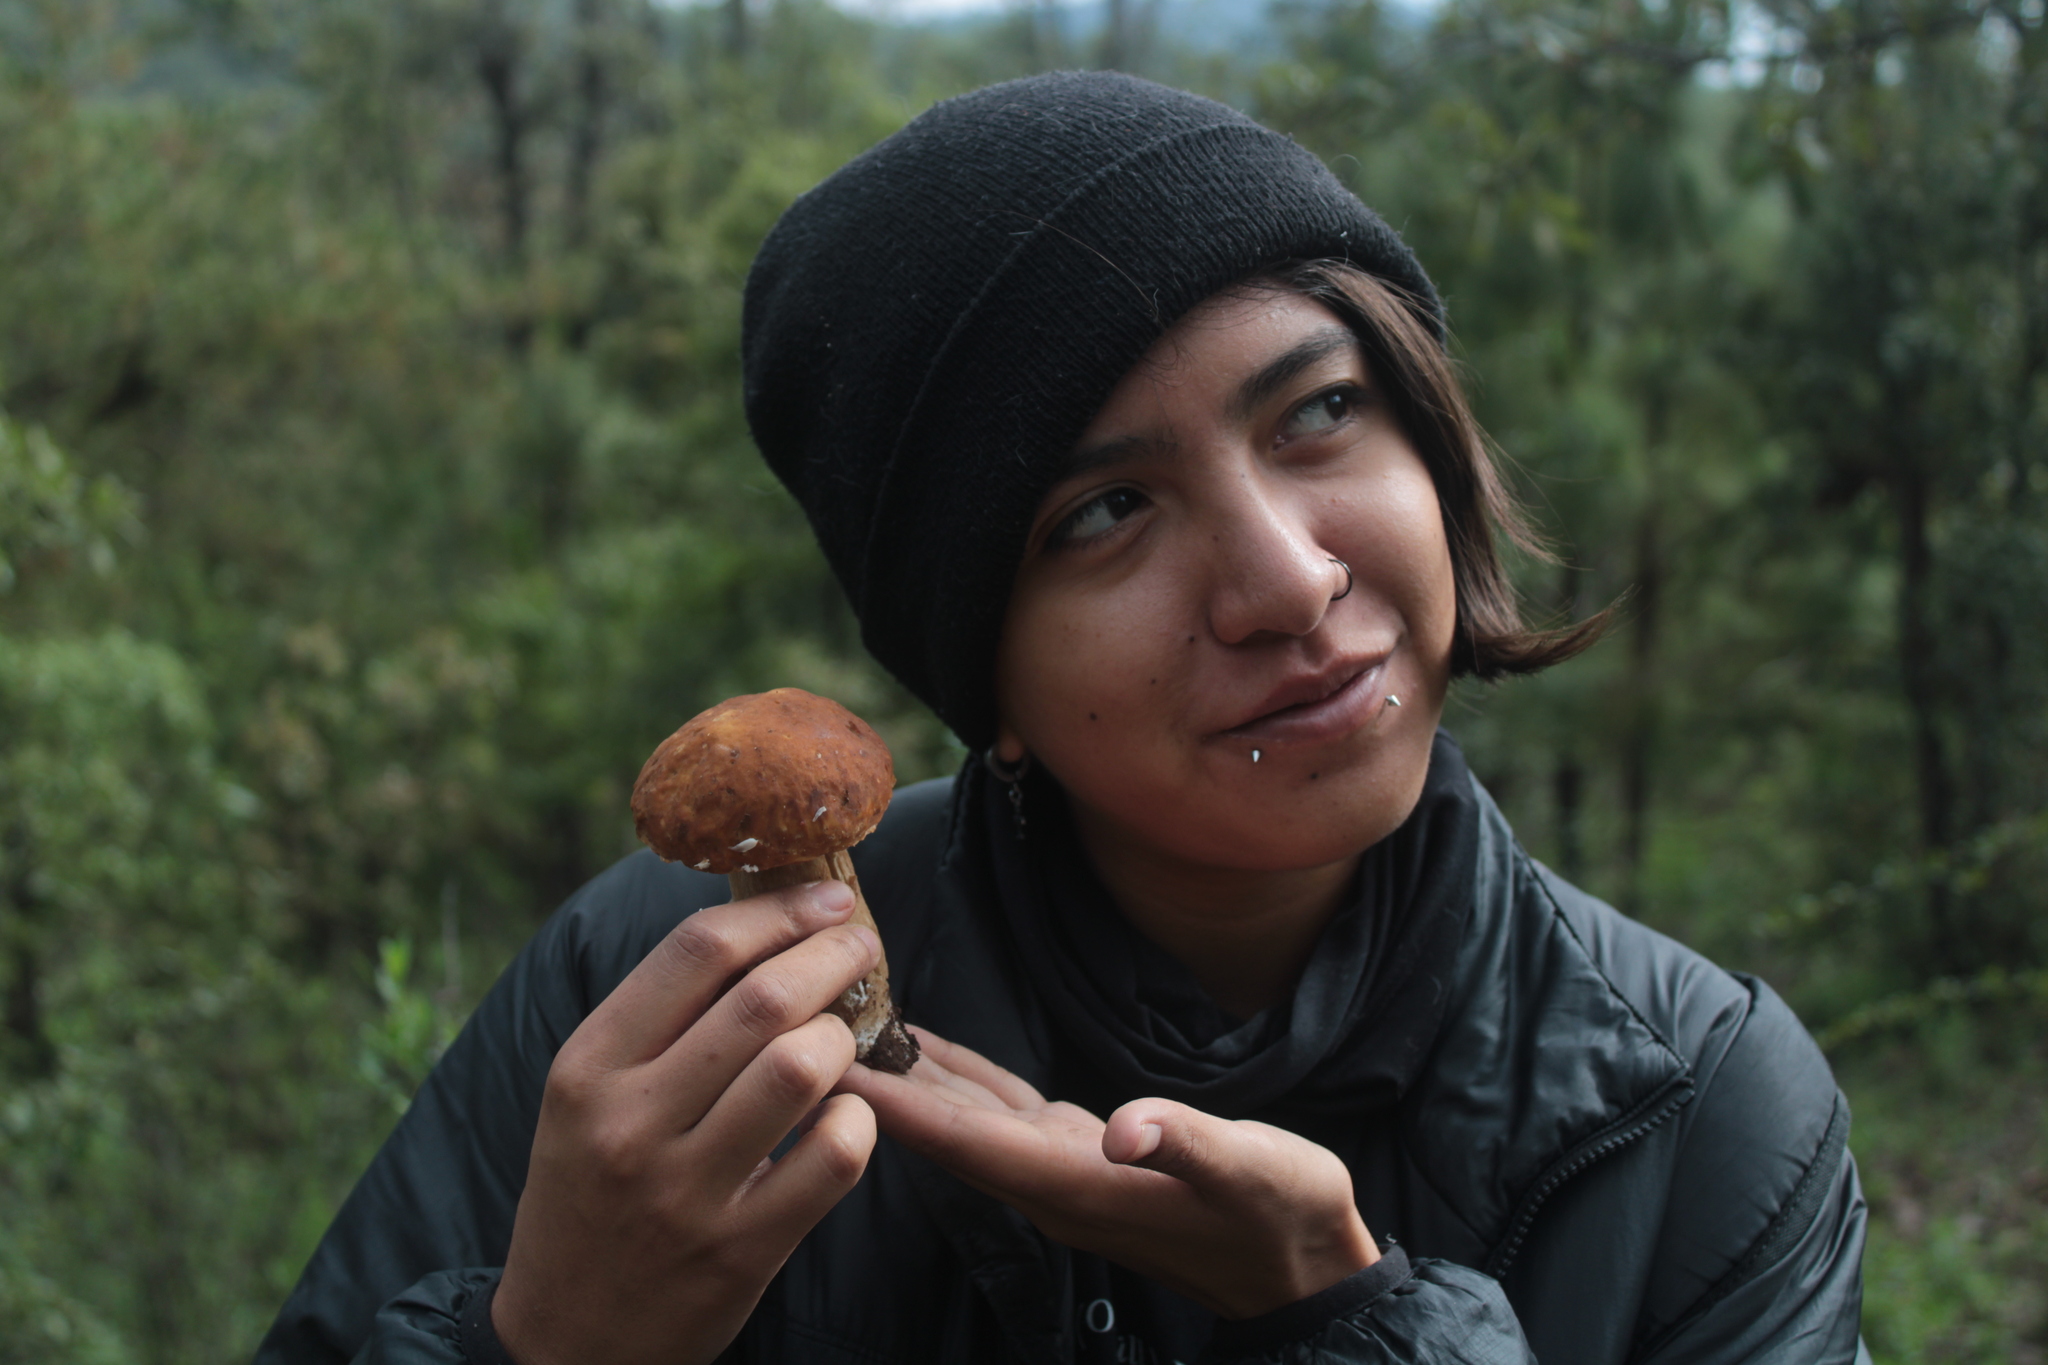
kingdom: Fungi
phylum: Basidiomycota
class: Agaricomycetes
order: Boletales
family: Boletaceae
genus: Boletus
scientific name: Boletus variipes
